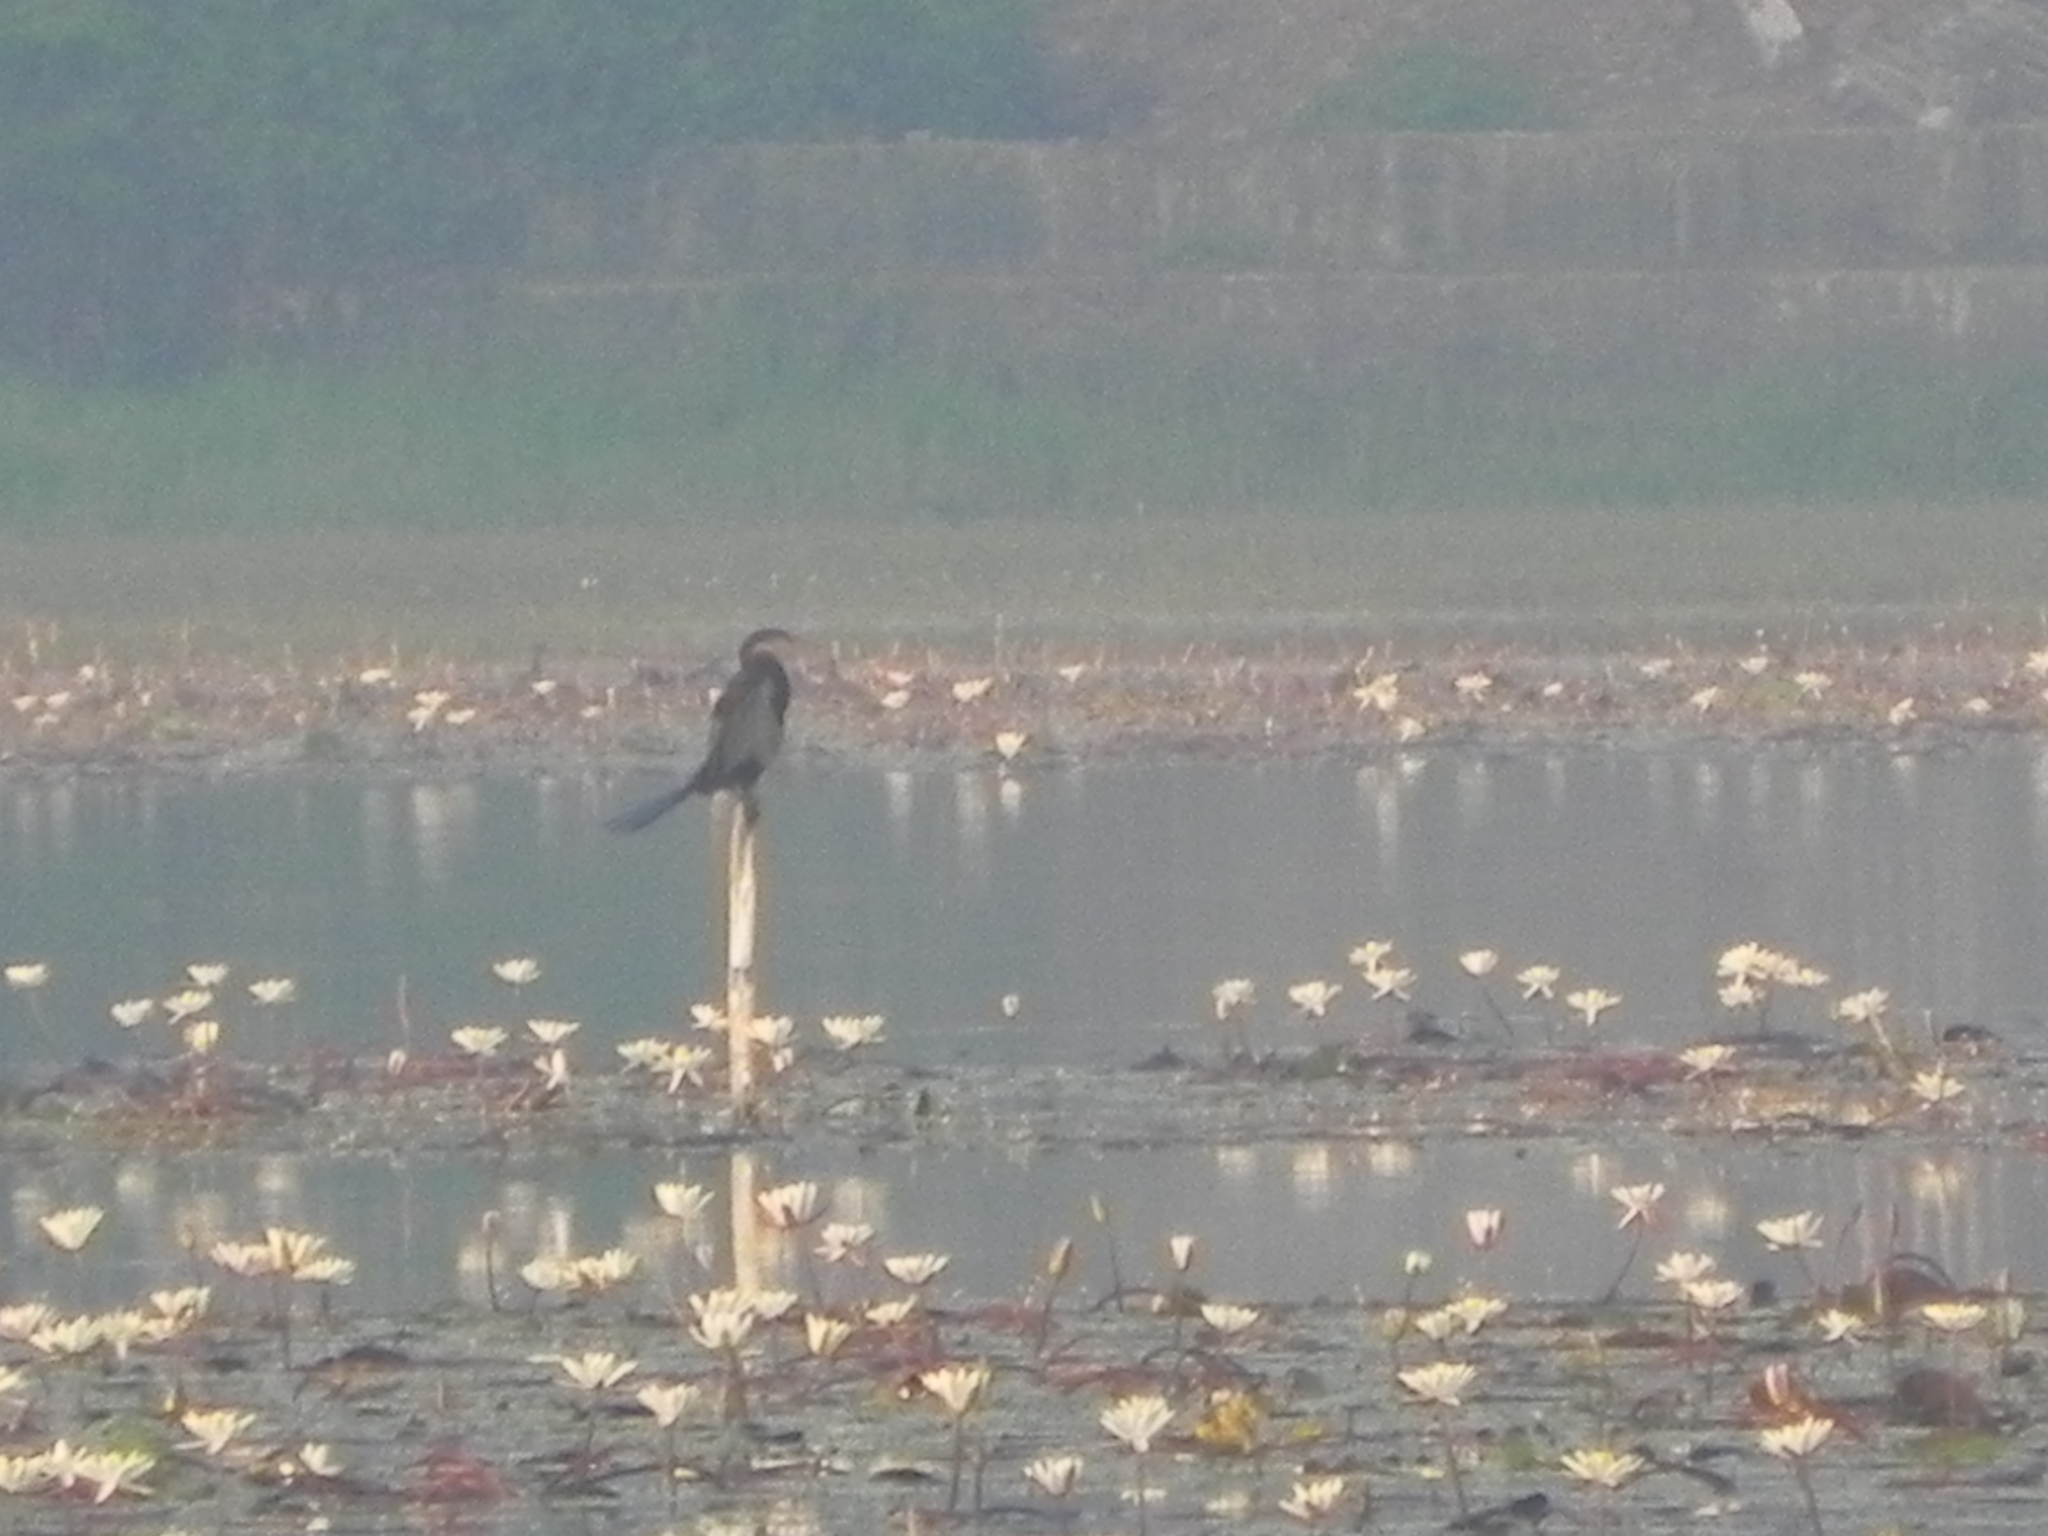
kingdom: Animalia
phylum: Chordata
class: Aves
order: Suliformes
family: Anhingidae
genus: Anhinga
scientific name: Anhinga melanogaster
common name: Oriental darter
